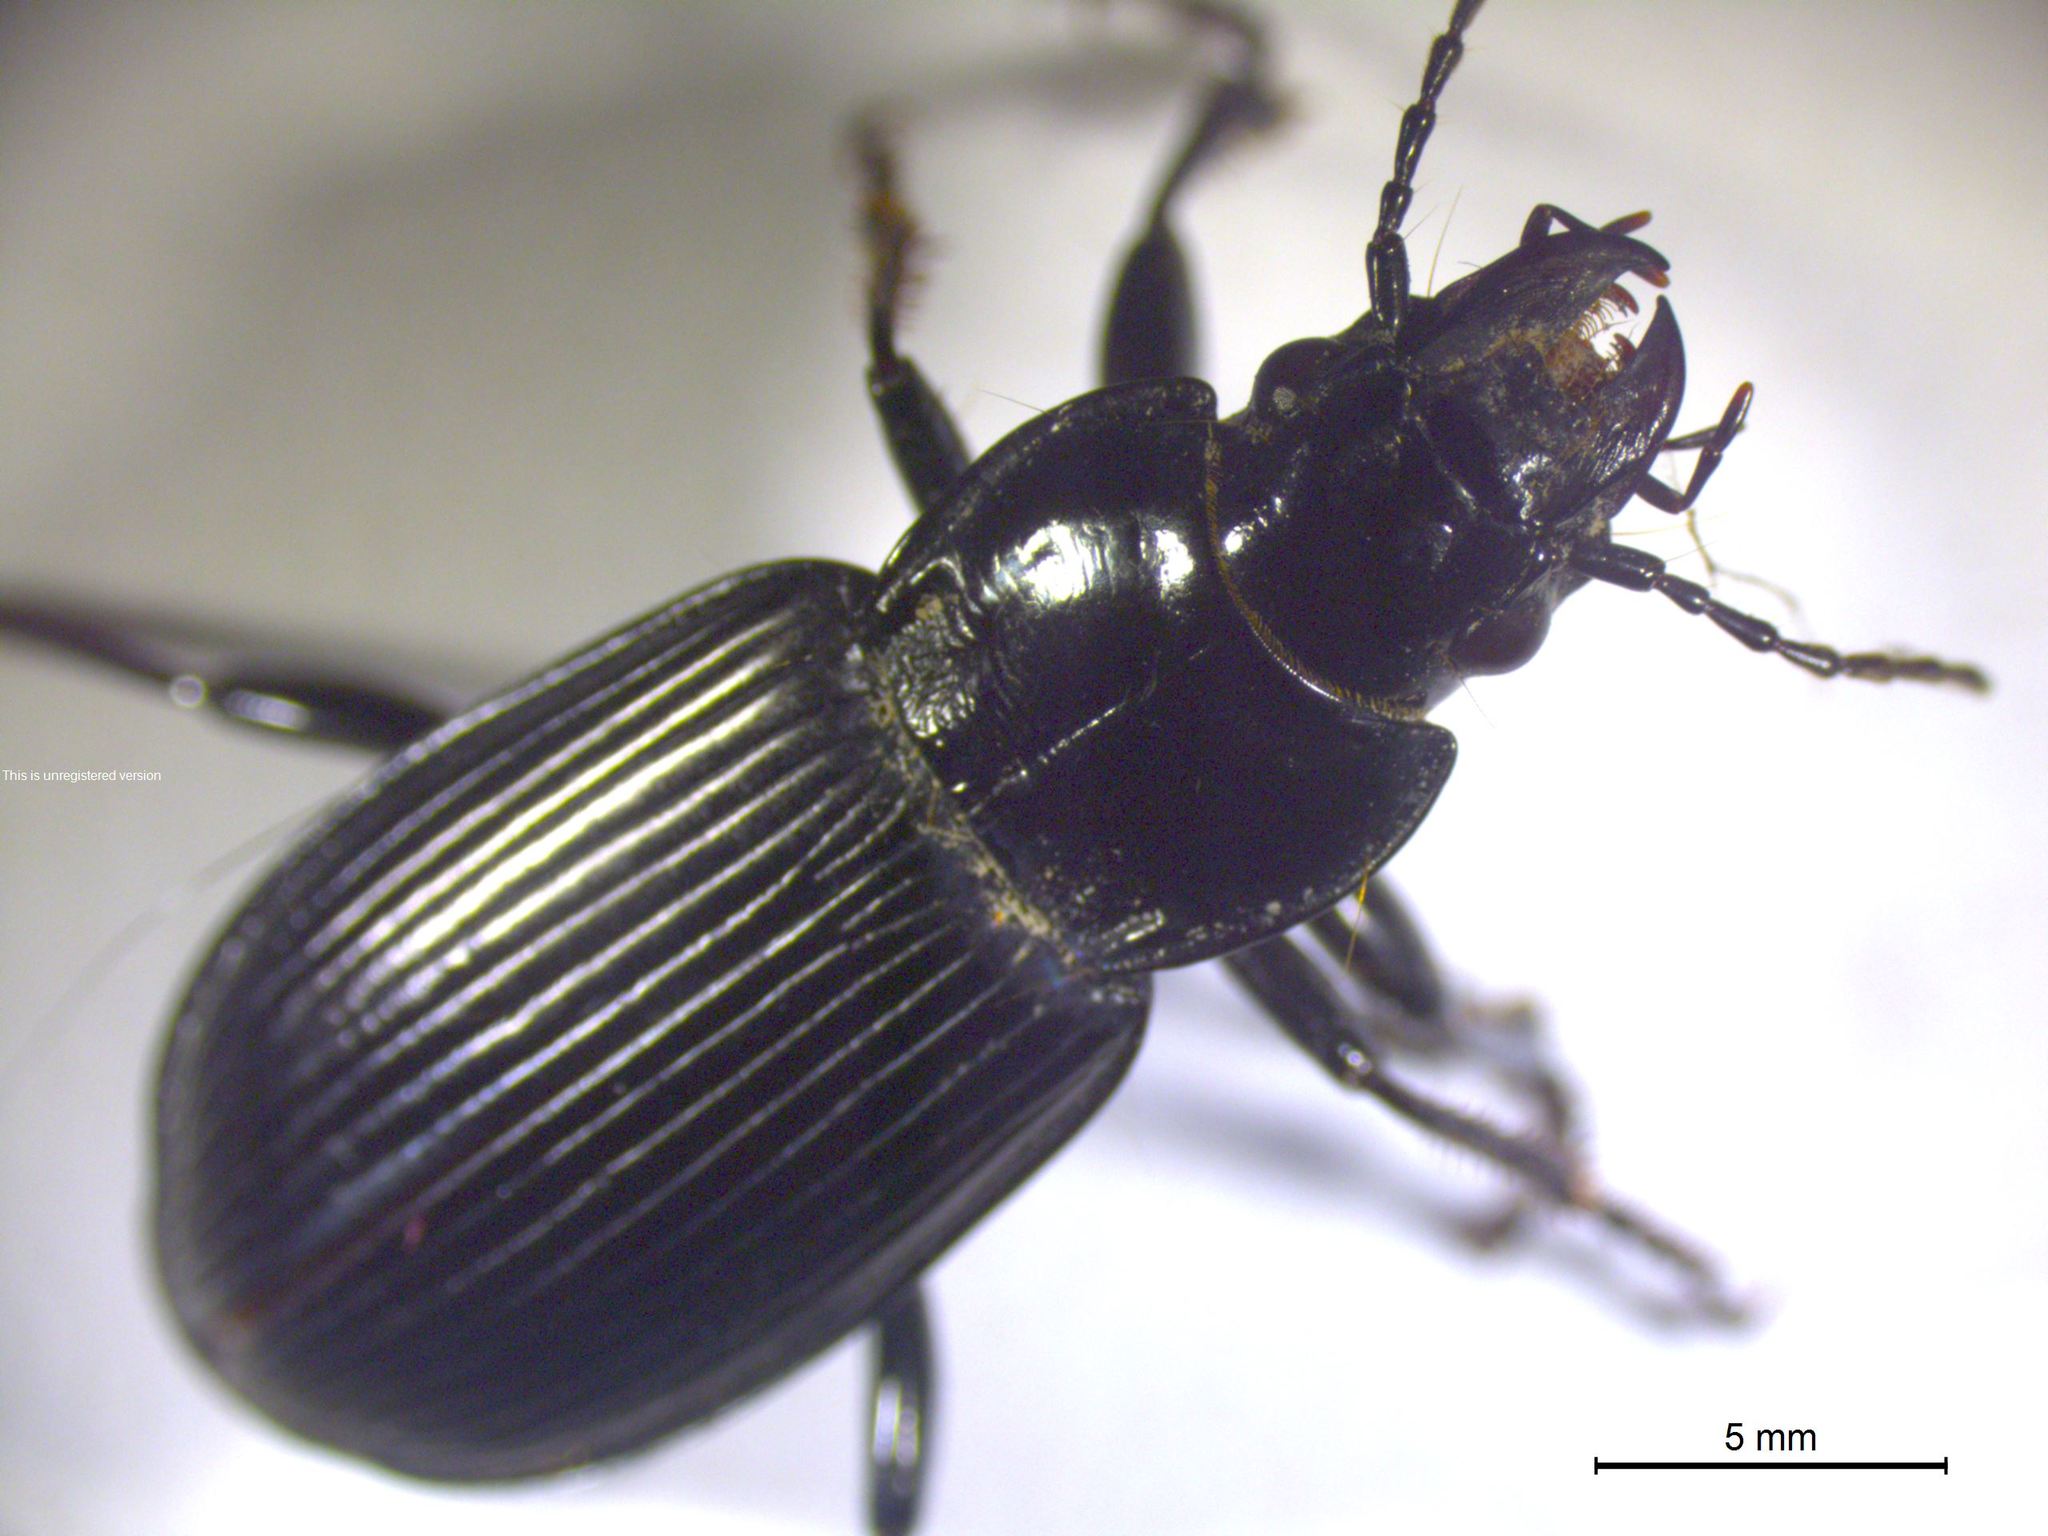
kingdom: Animalia
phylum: Arthropoda
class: Insecta
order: Coleoptera
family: Carabidae
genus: Pterostichus
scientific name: Pterostichus melanarius
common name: European dark harp ground beetle
